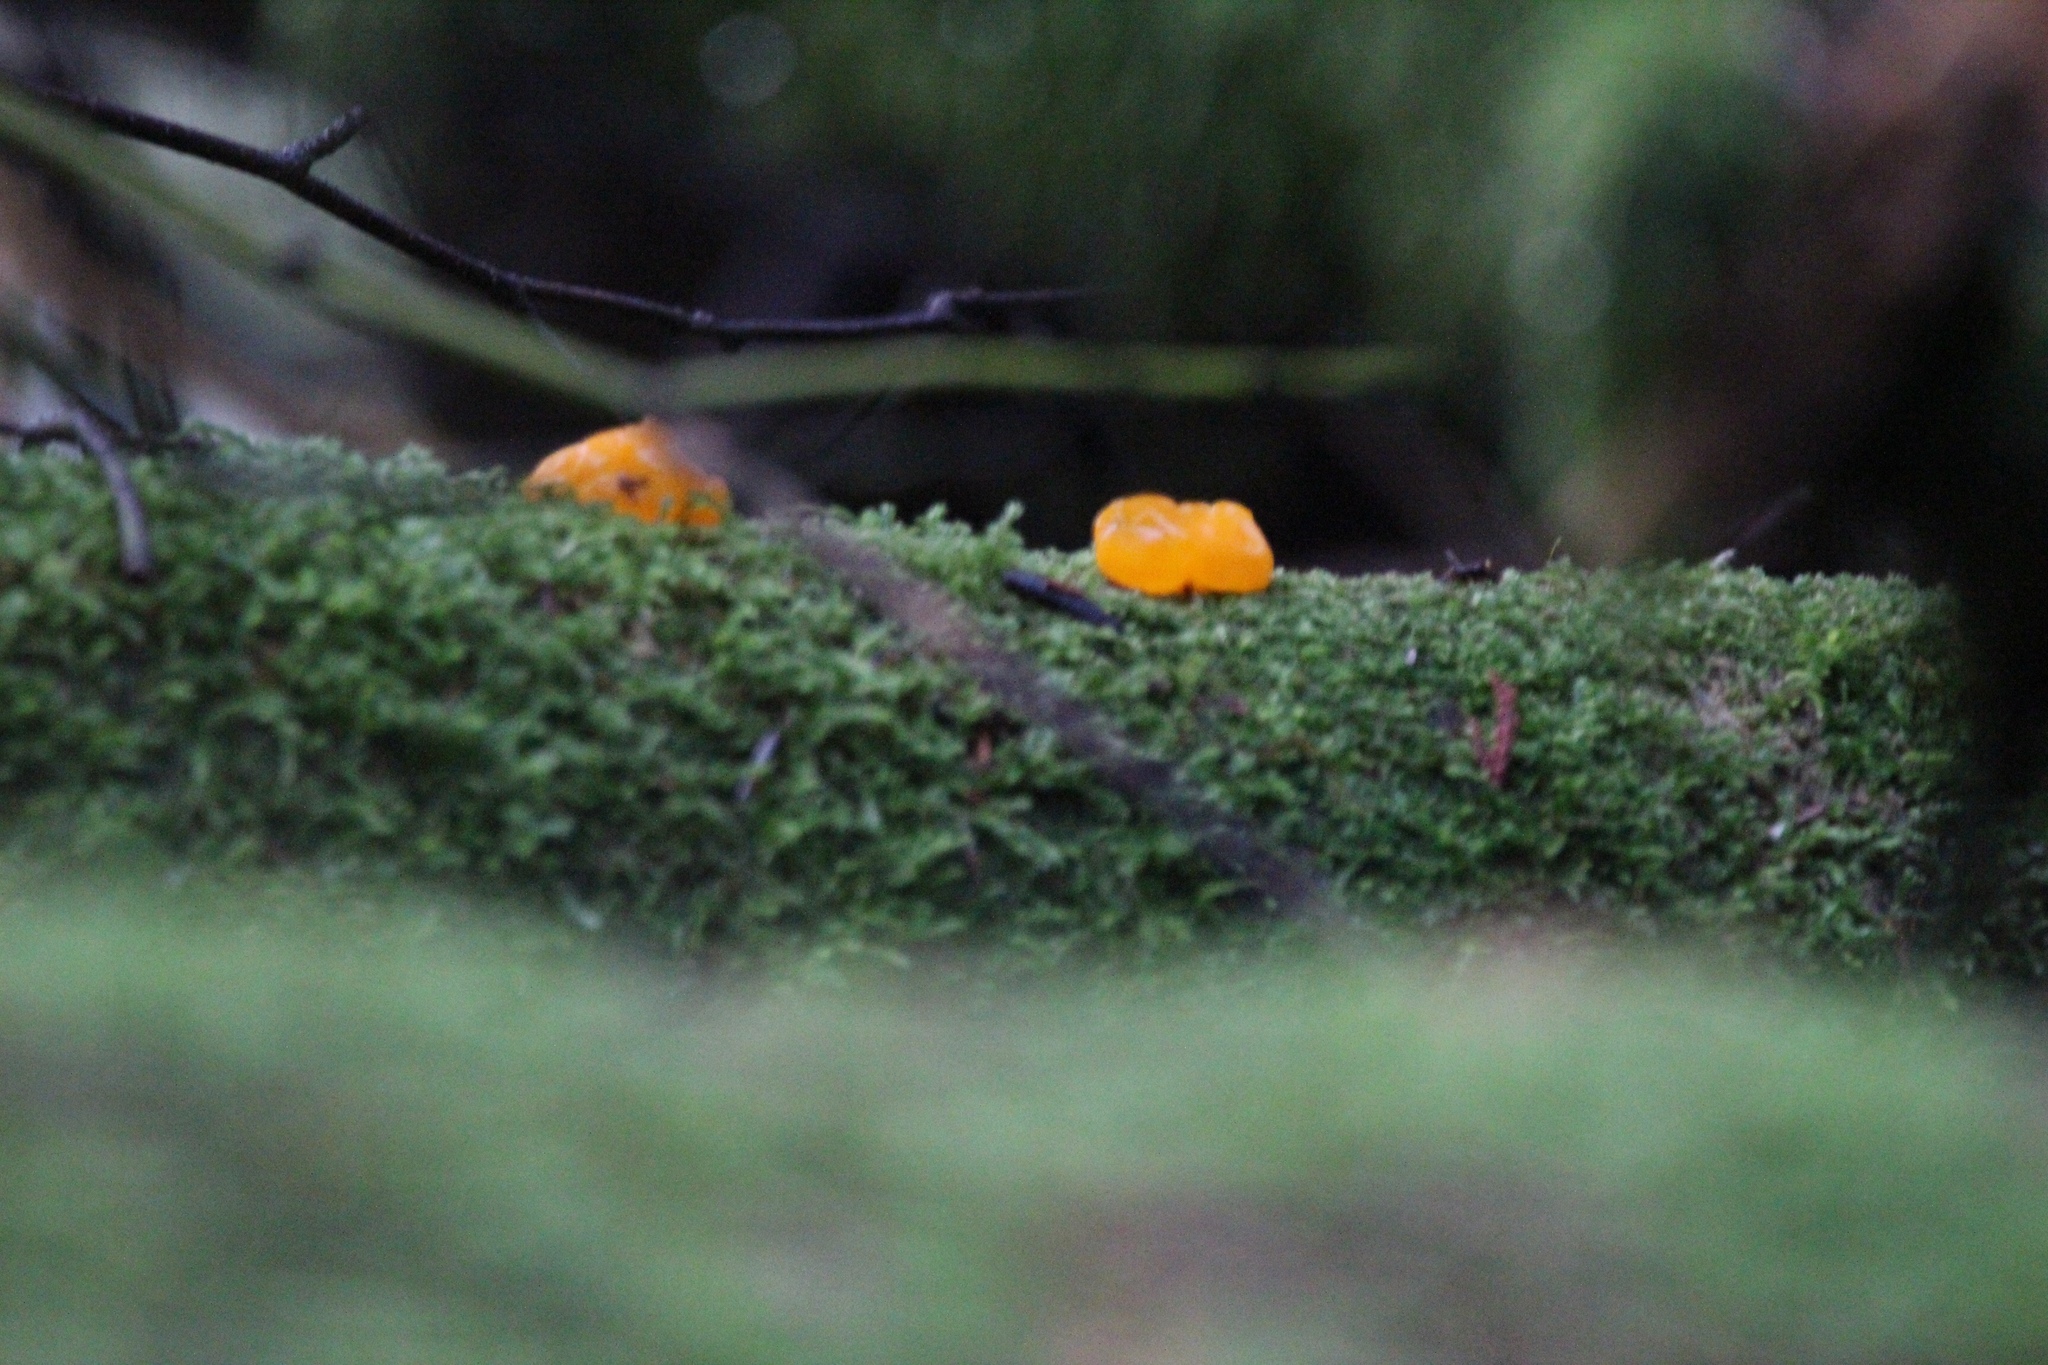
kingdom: Fungi
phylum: Basidiomycota
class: Dacrymycetes
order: Dacrymycetales
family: Dacrymycetaceae
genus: Dacrymyces
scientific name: Dacrymyces chrysospermus
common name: Orange jelly spot
